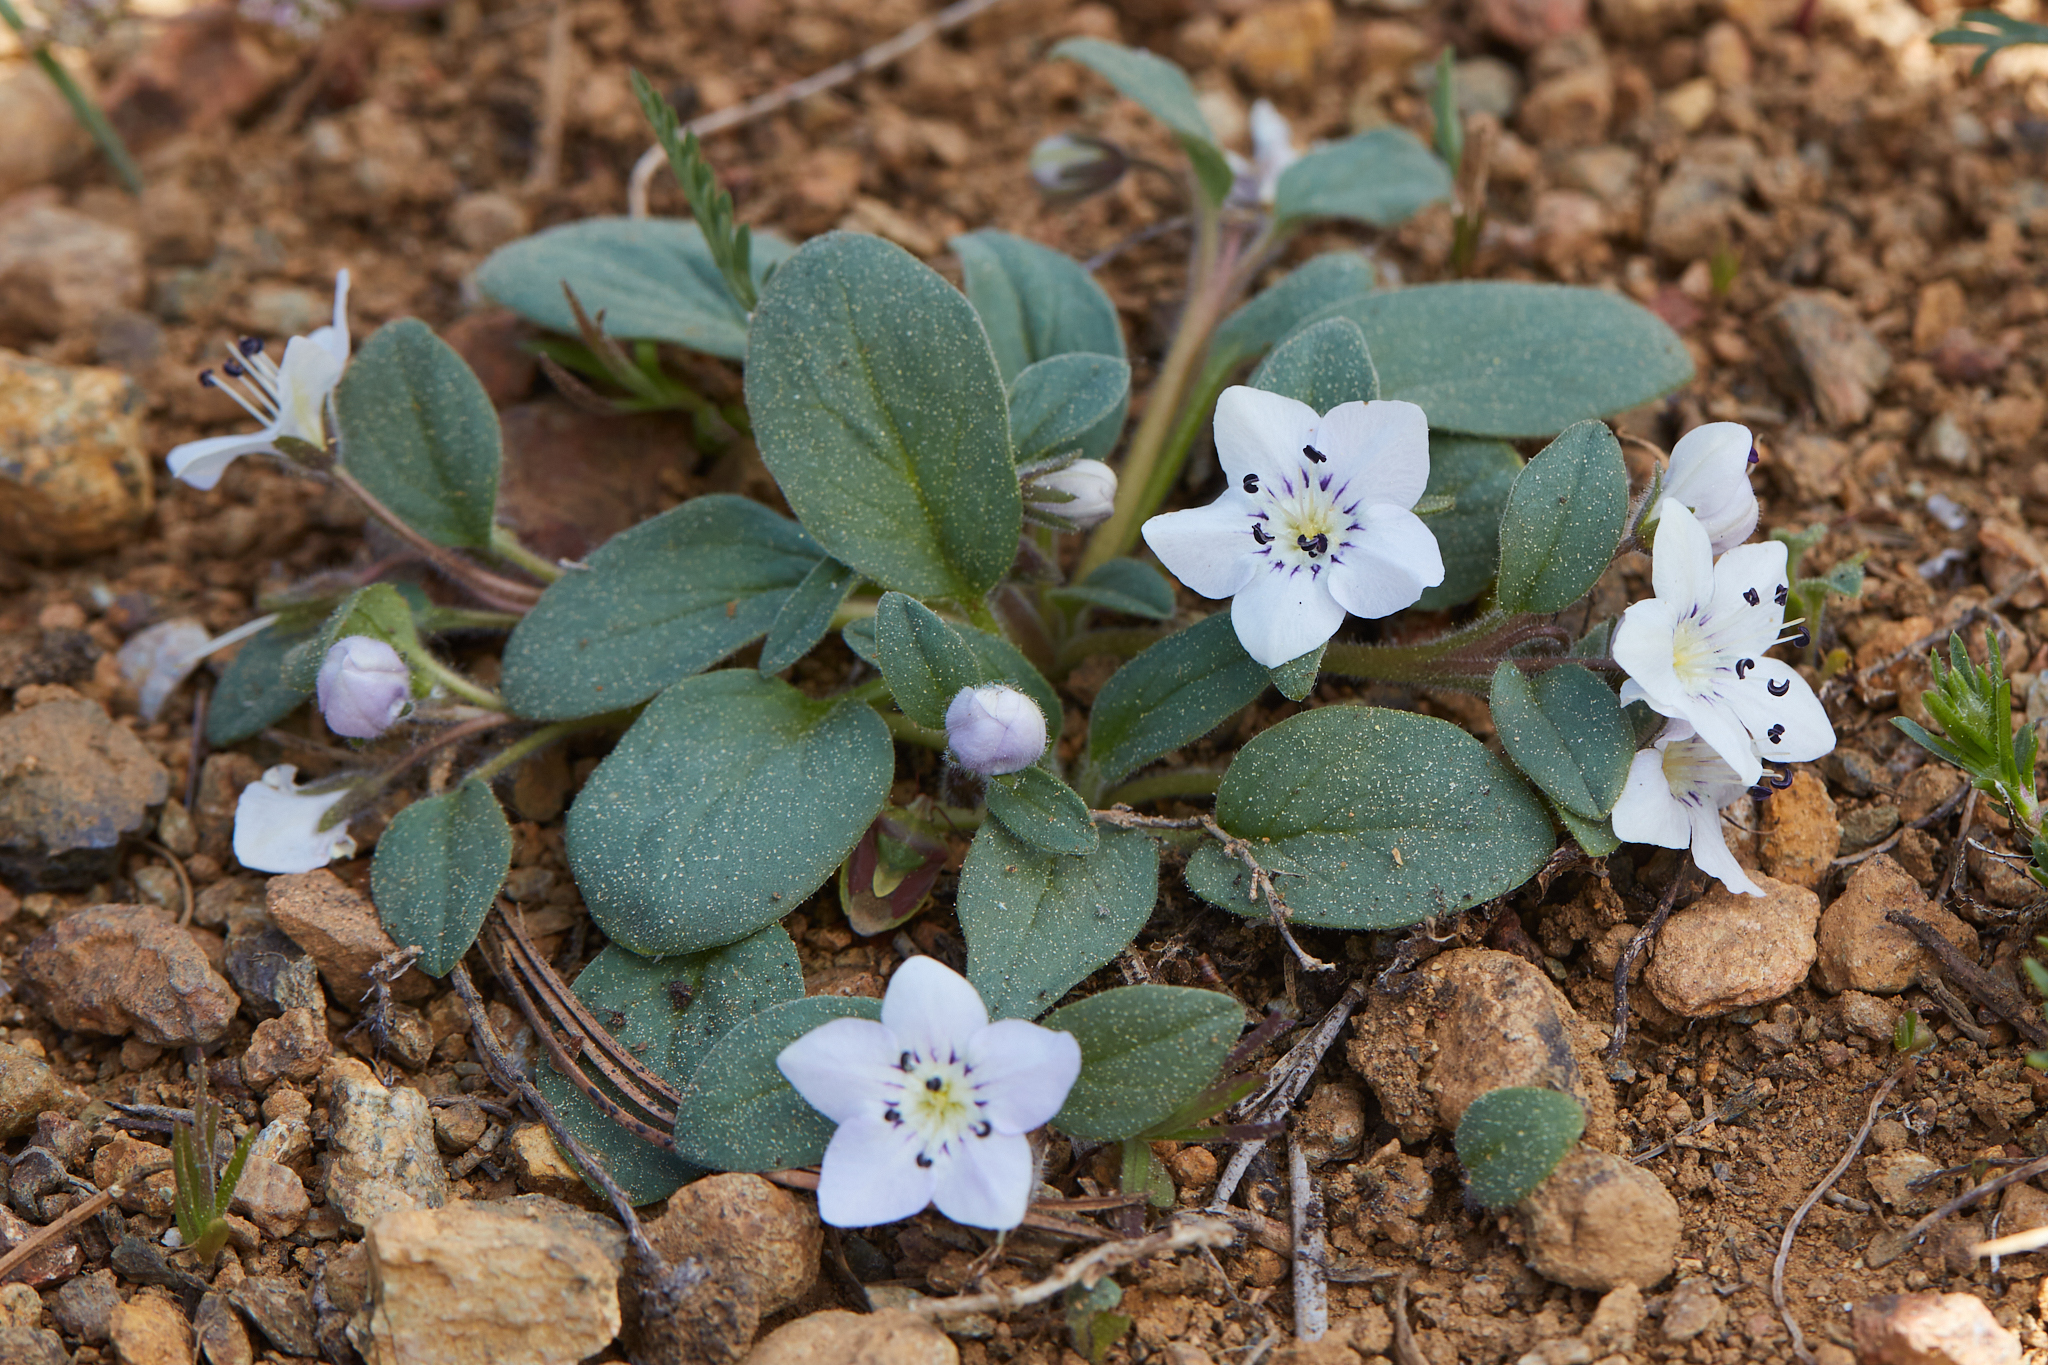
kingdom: Plantae
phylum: Tracheophyta
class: Magnoliopsida
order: Boraginales
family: Hydrophyllaceae
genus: Howellanthus
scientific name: Howellanthus dalesianus
